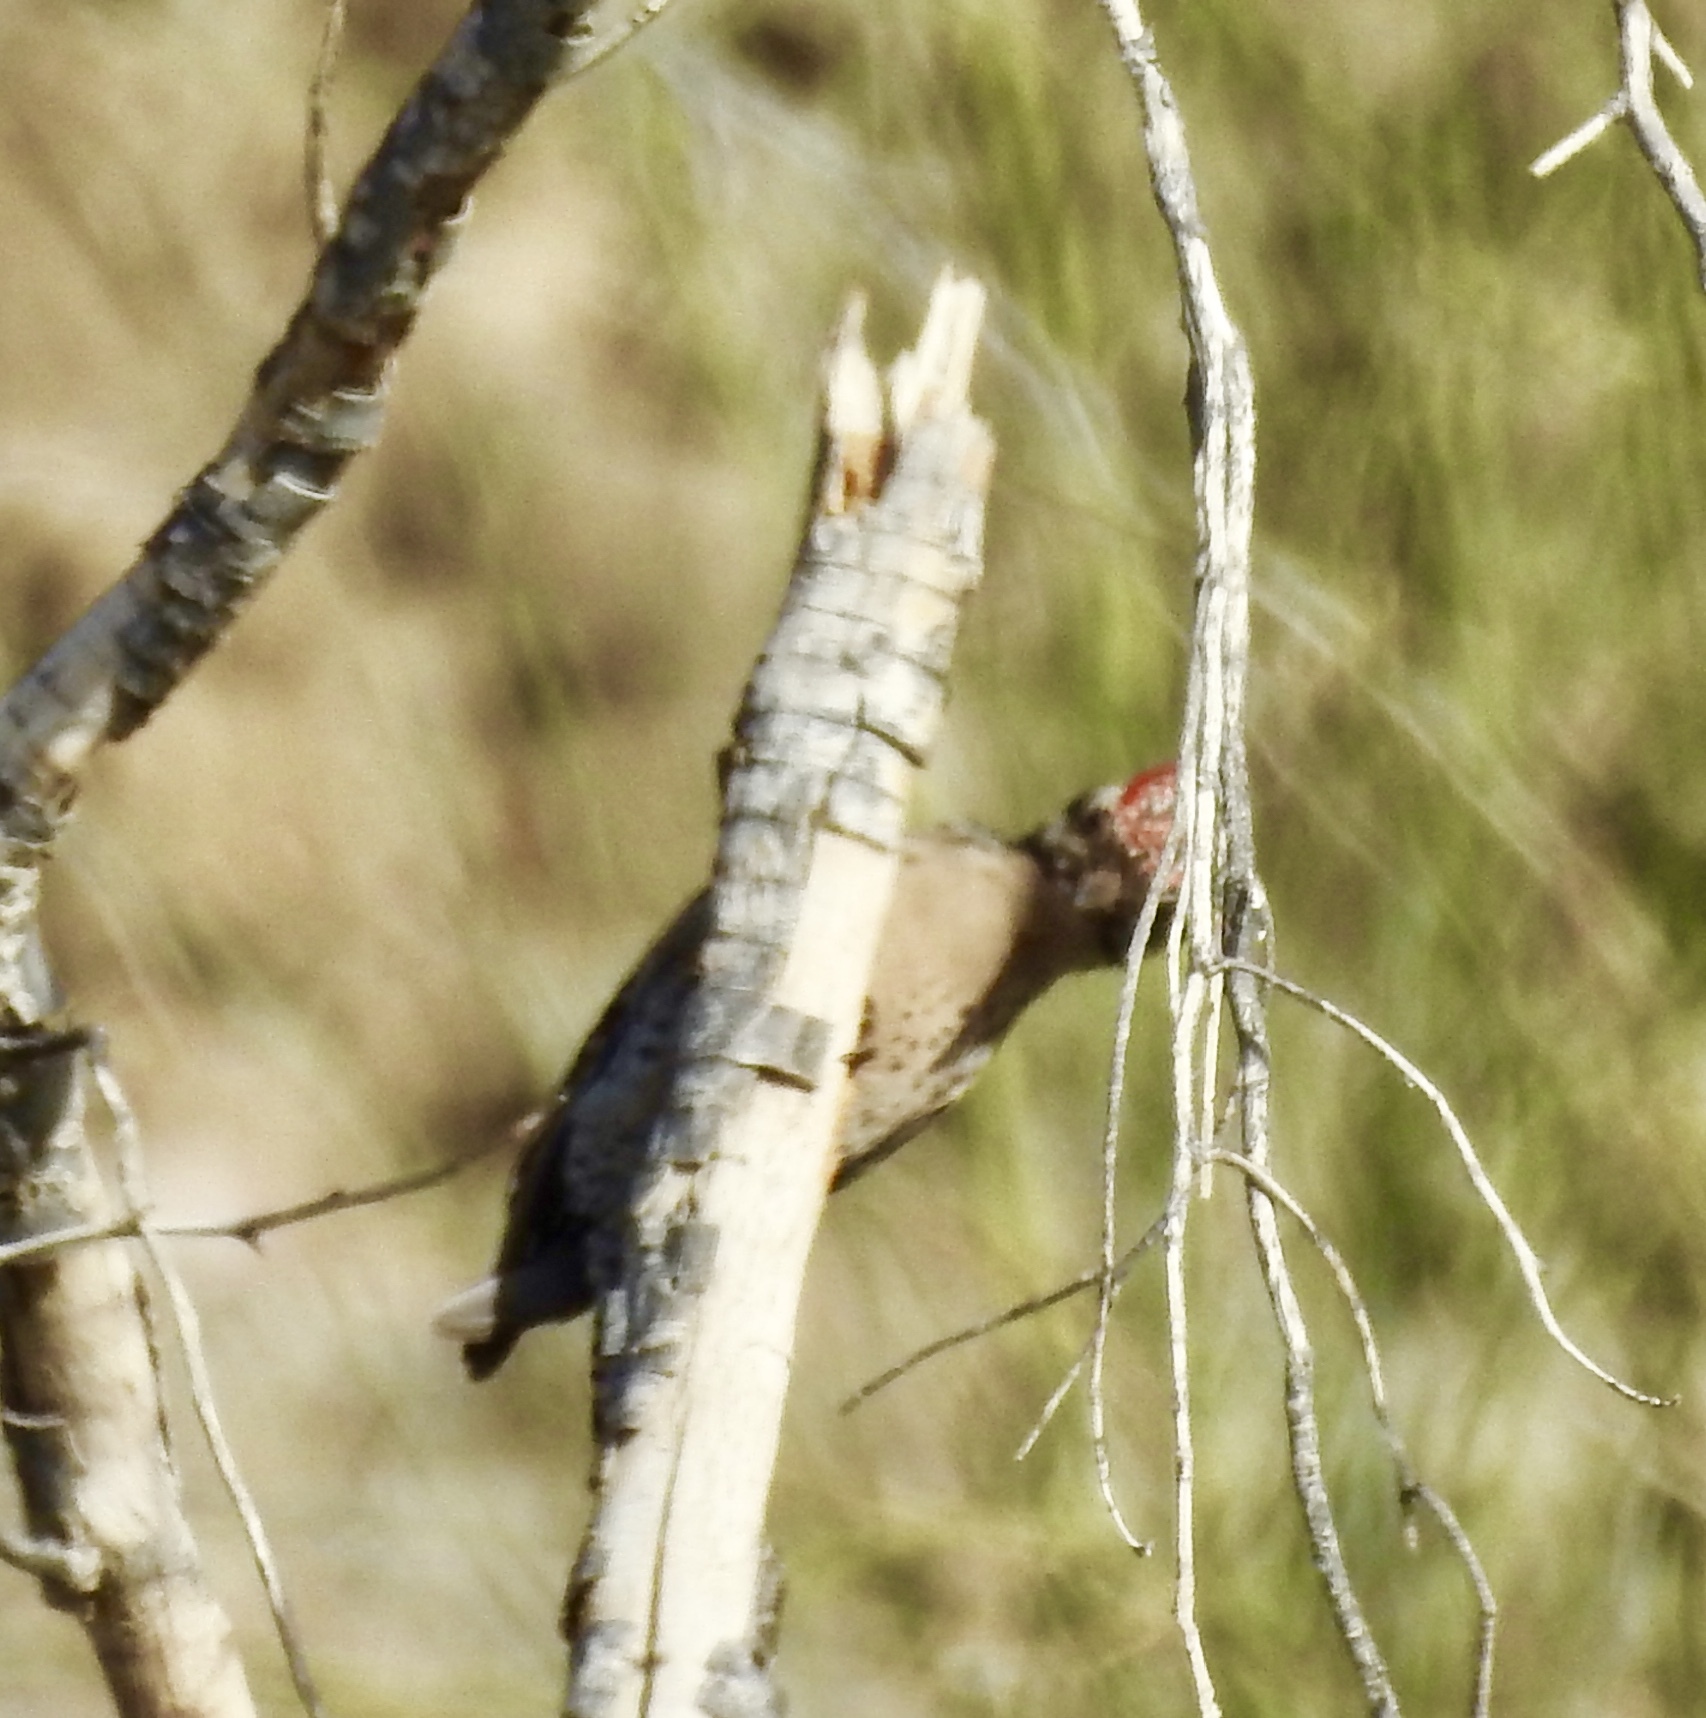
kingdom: Animalia
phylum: Chordata
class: Aves
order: Piciformes
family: Picidae
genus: Dryobates
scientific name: Dryobates scalaris
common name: Ladder-backed woodpecker
